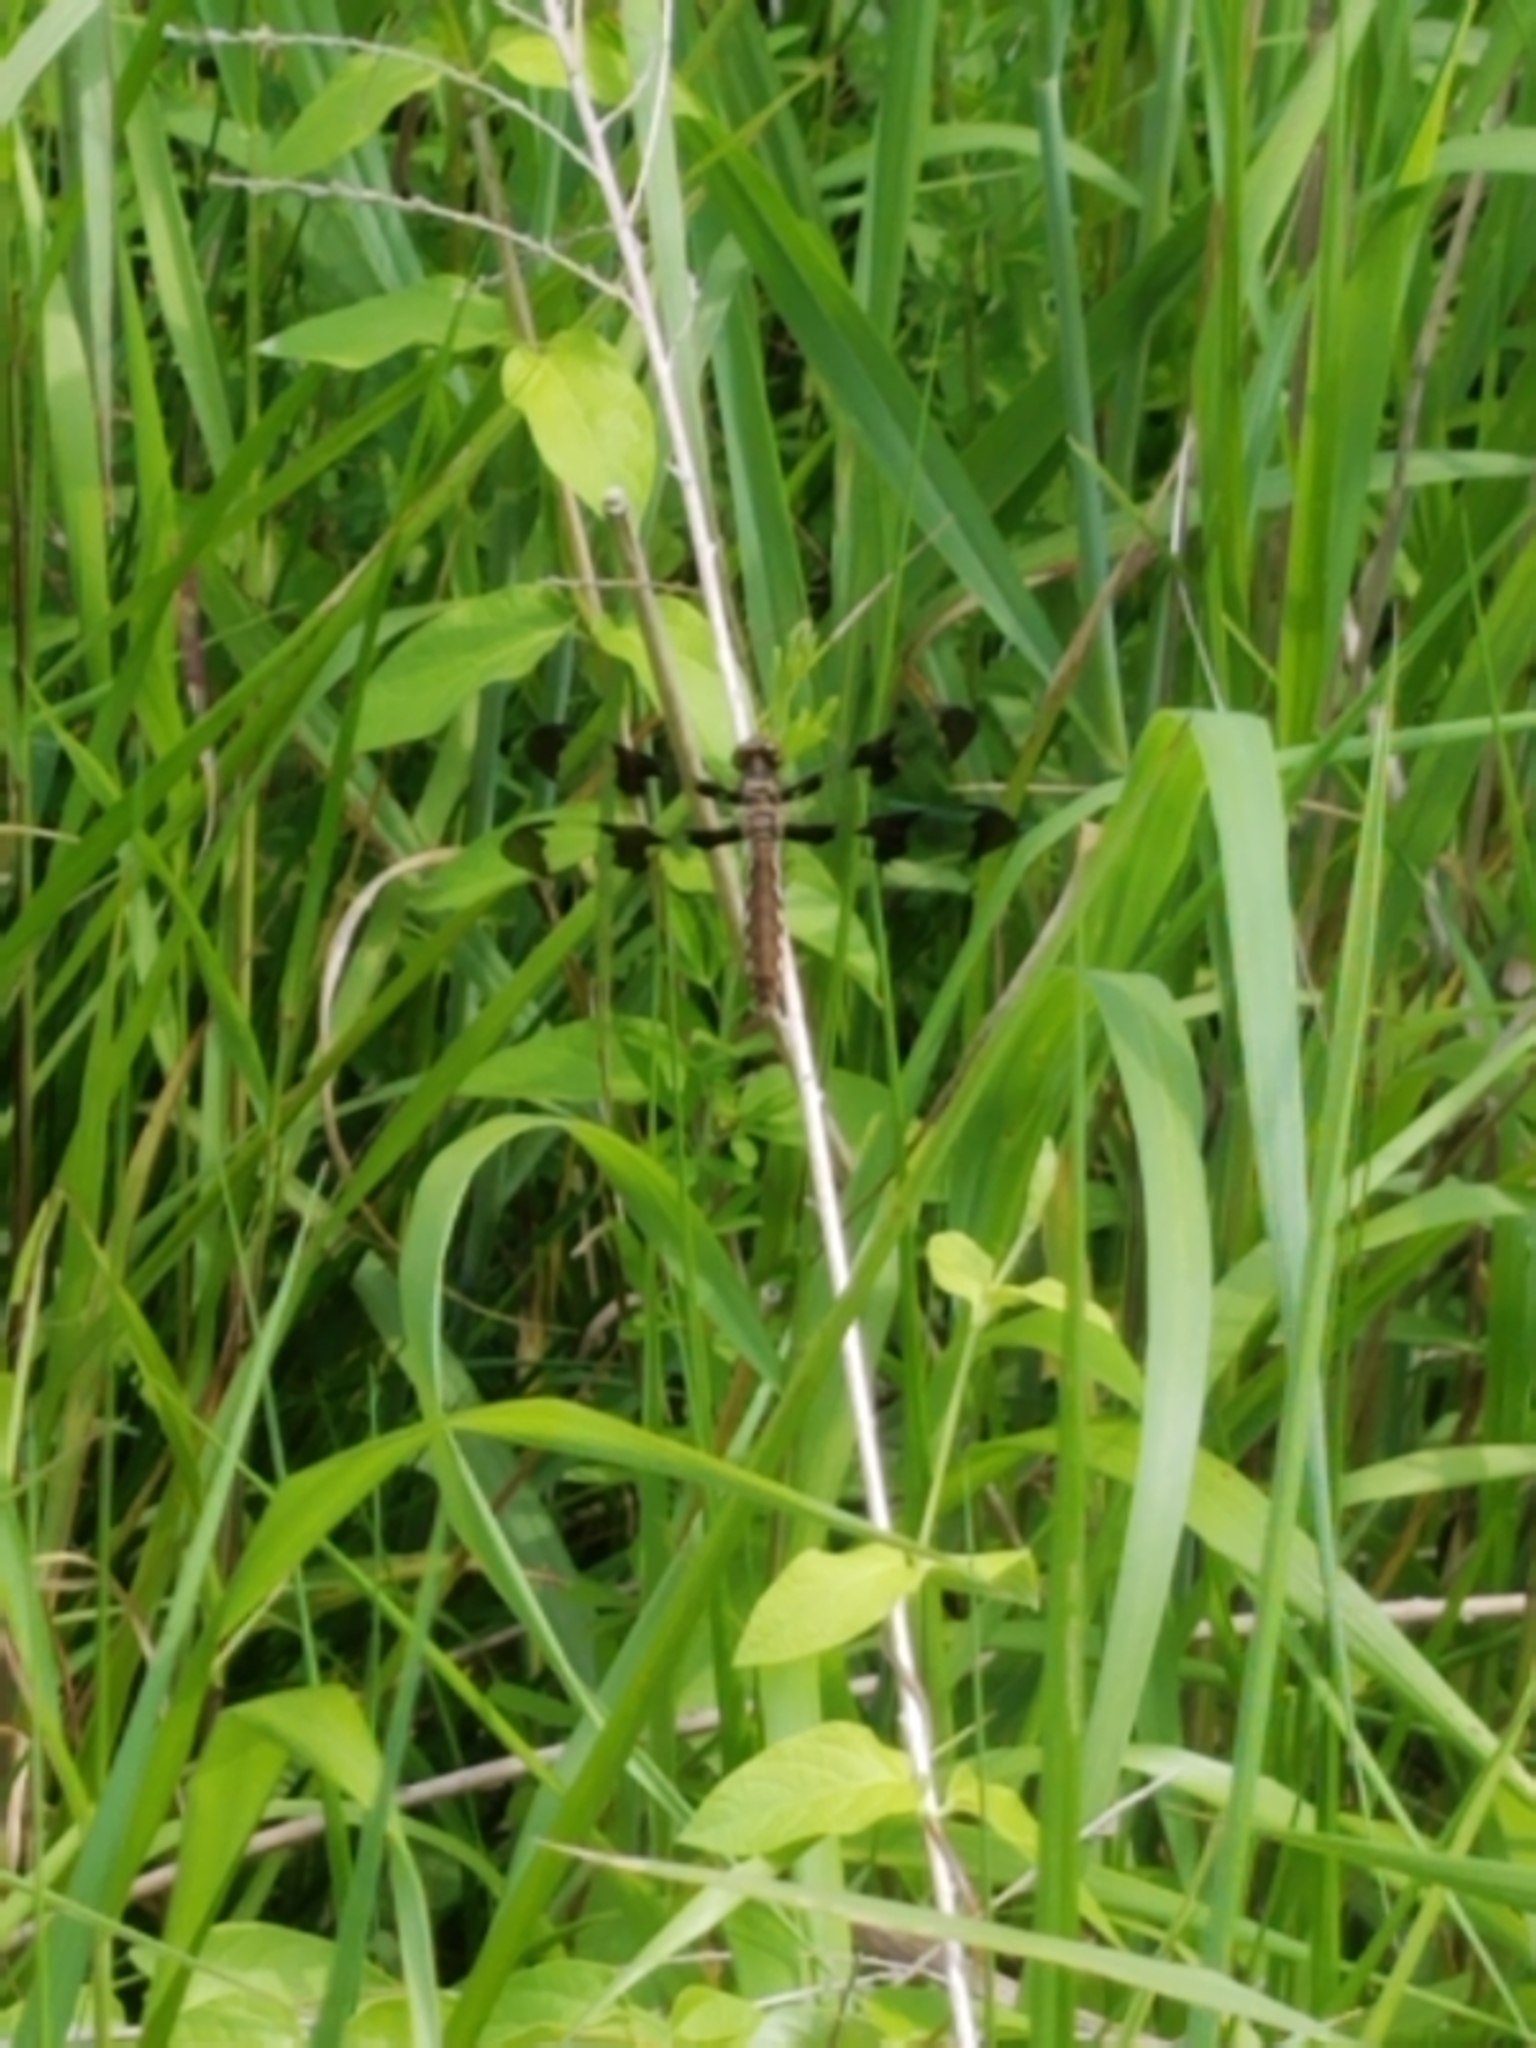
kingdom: Animalia
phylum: Arthropoda
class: Insecta
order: Odonata
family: Libellulidae
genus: Plathemis
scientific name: Plathemis lydia
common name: Common whitetail
